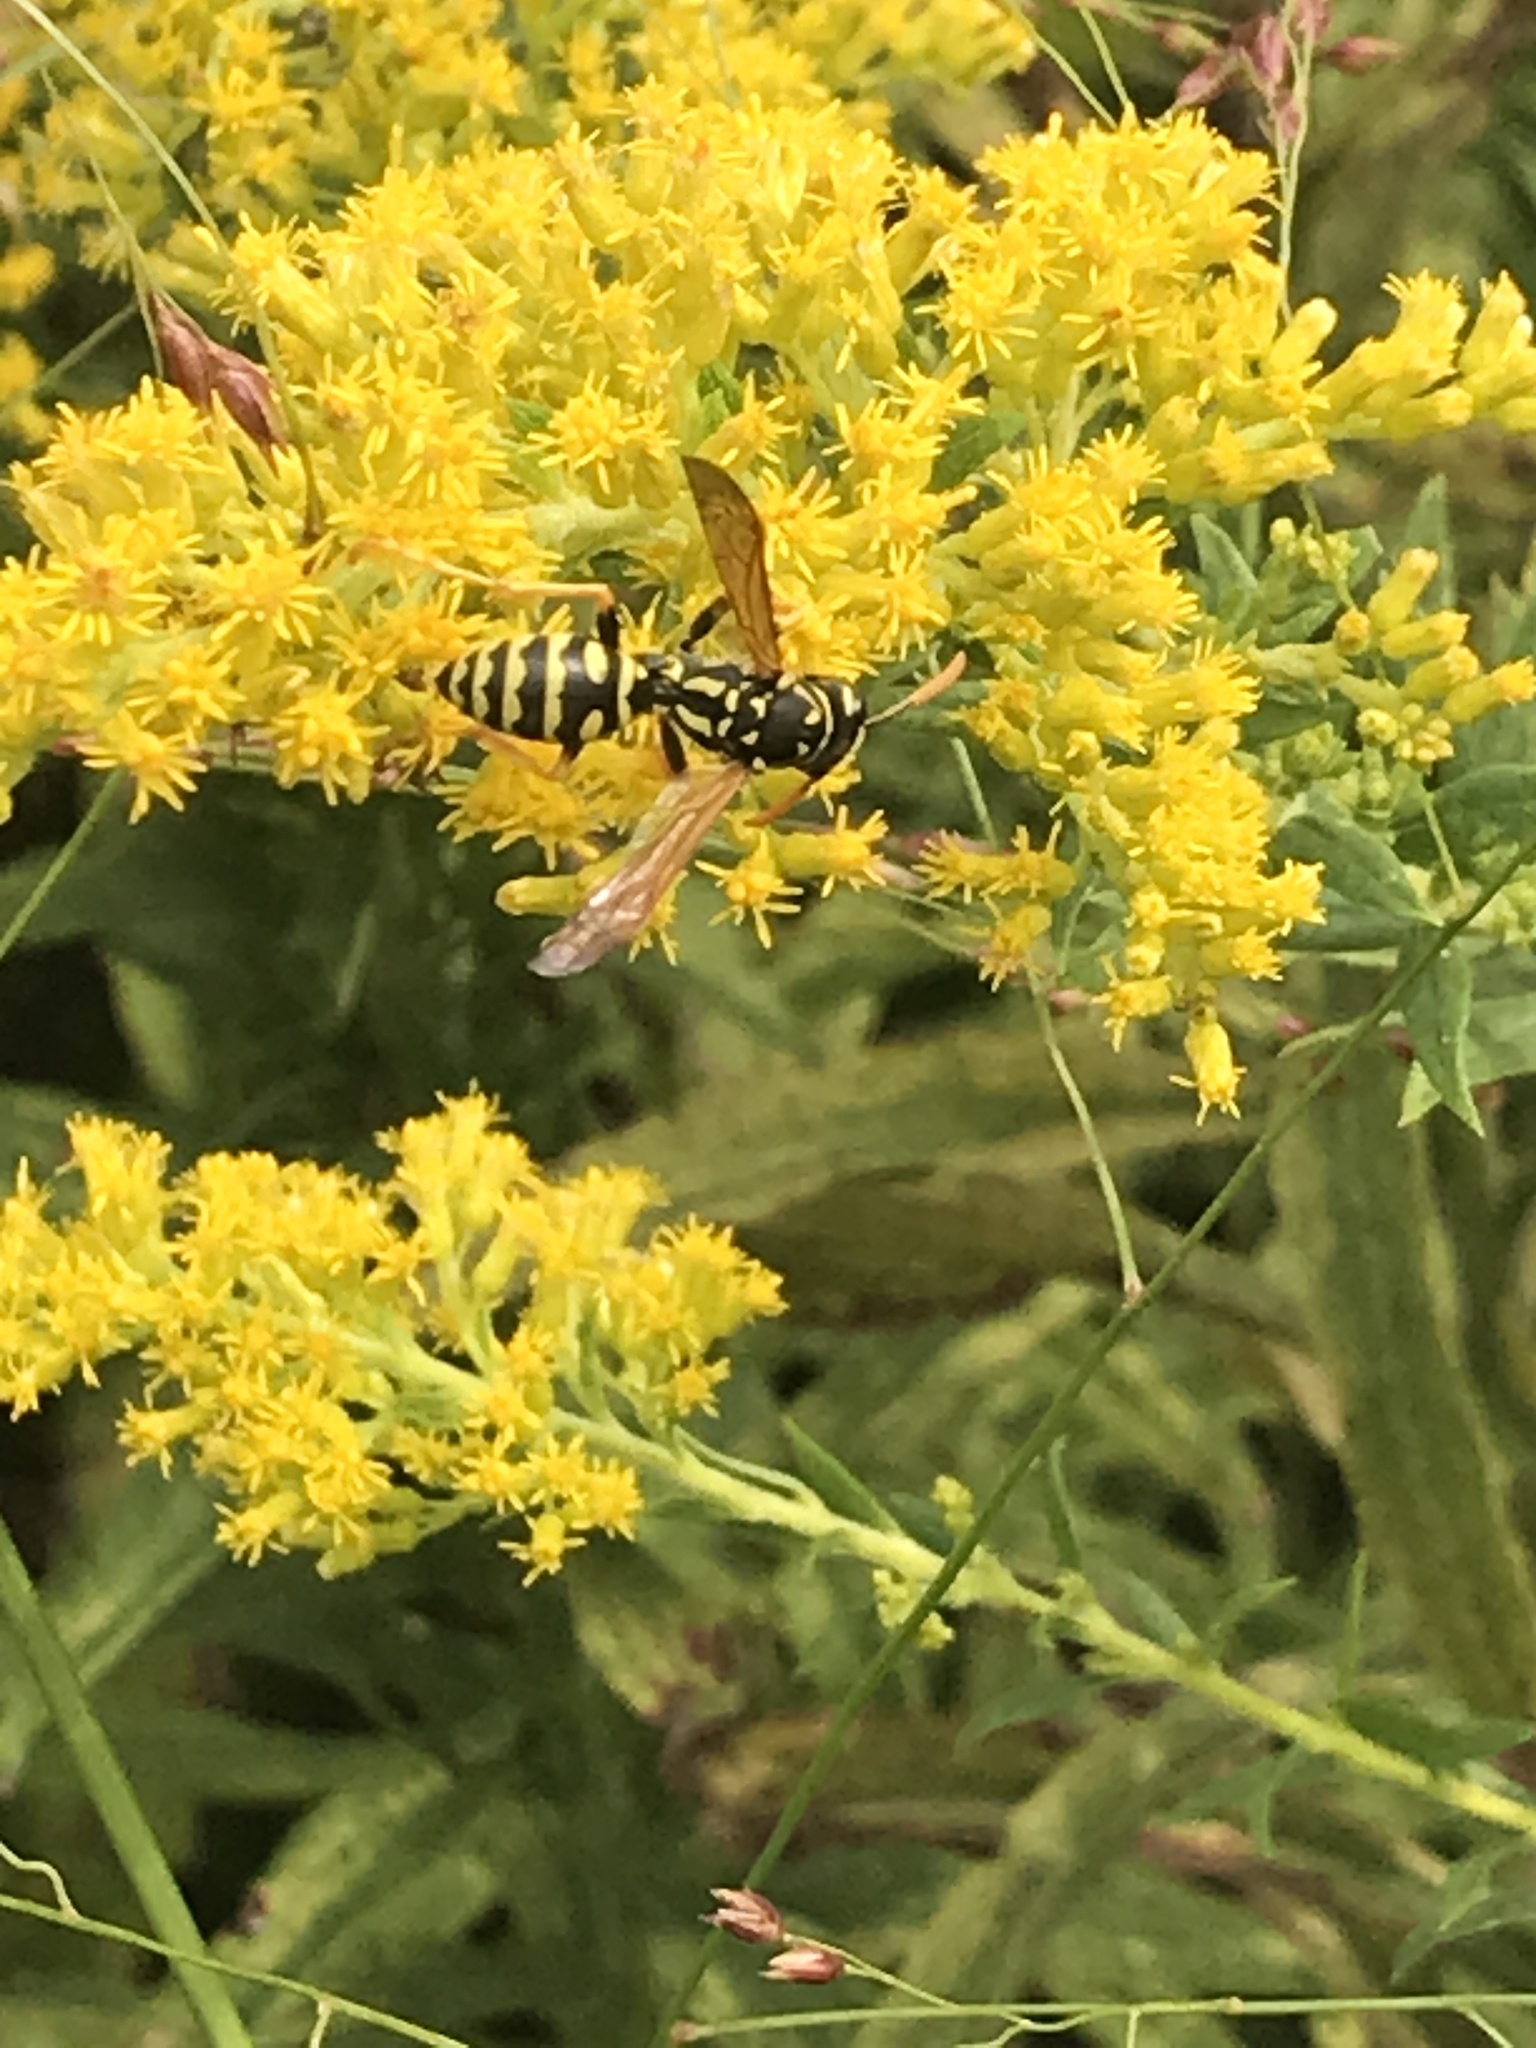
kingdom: Animalia
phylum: Arthropoda
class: Insecta
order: Hymenoptera
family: Eumenidae
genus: Polistes
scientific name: Polistes dominula
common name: Paper wasp
